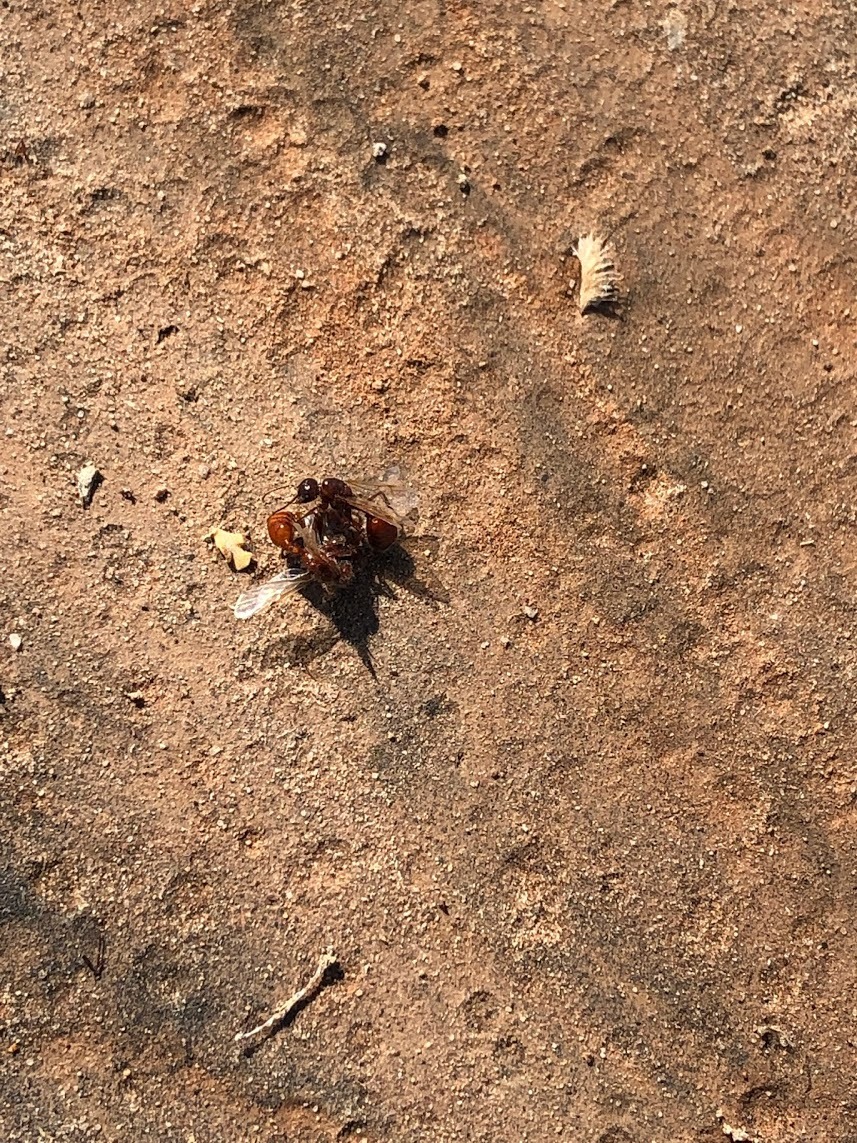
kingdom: Animalia
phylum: Arthropoda
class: Insecta
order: Hymenoptera
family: Formicidae
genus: Pogonomyrmex
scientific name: Pogonomyrmex rugosus
